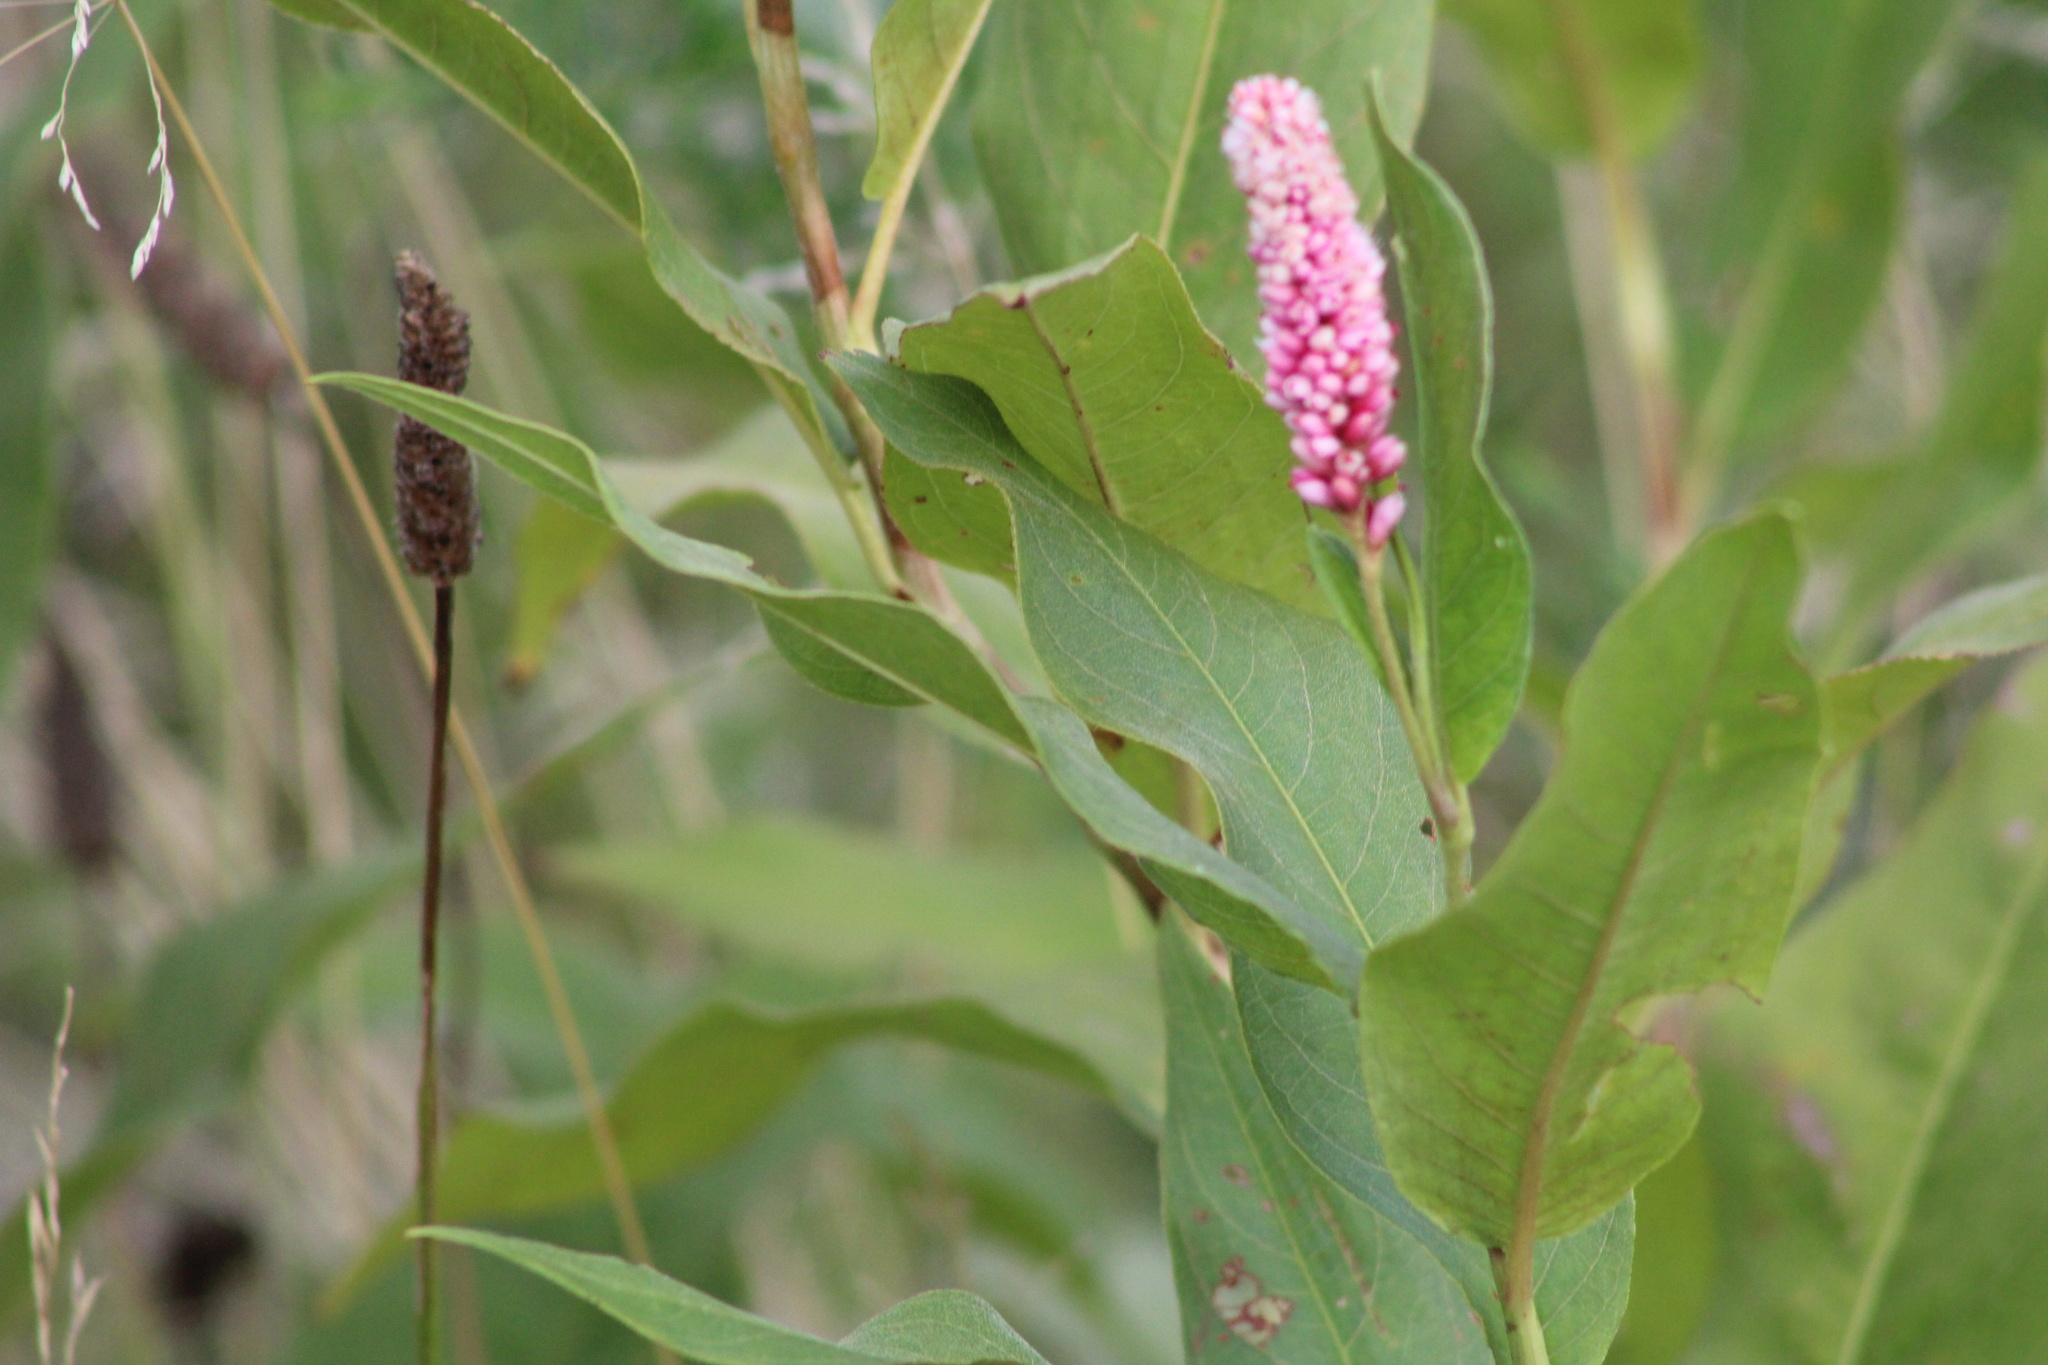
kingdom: Plantae
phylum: Tracheophyta
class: Magnoliopsida
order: Caryophyllales
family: Polygonaceae
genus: Persicaria
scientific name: Persicaria amphibia
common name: Amphibious bistort
